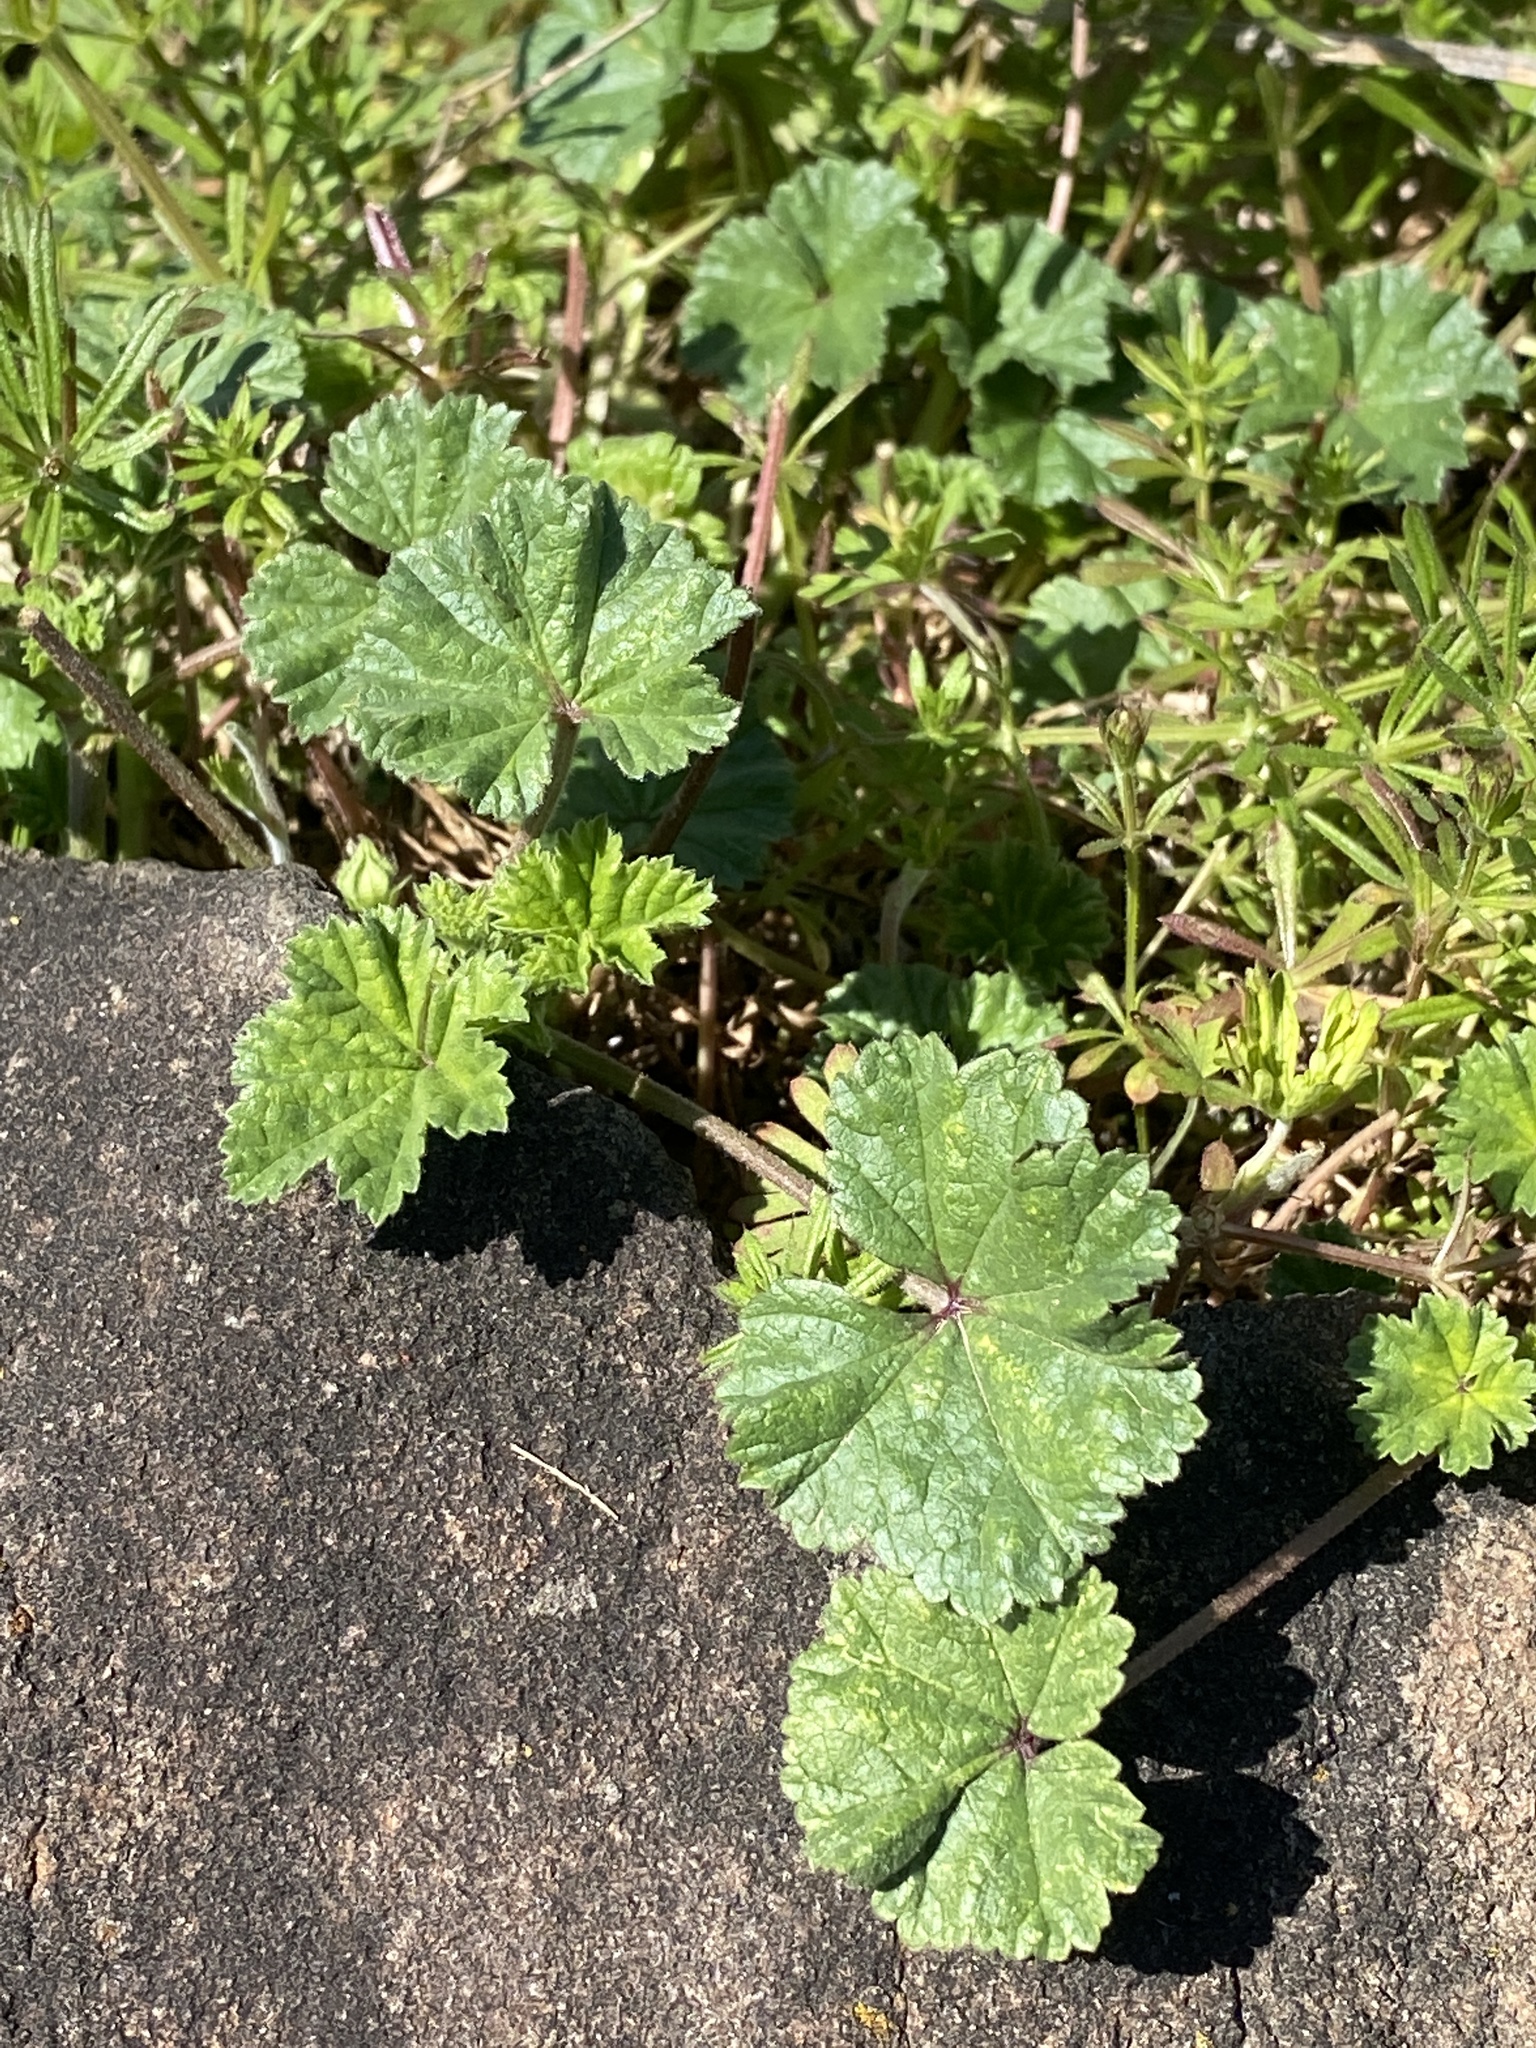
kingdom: Plantae
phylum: Tracheophyta
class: Magnoliopsida
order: Malvales
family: Malvaceae
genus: Malva
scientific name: Malva neglecta
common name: Common mallow
